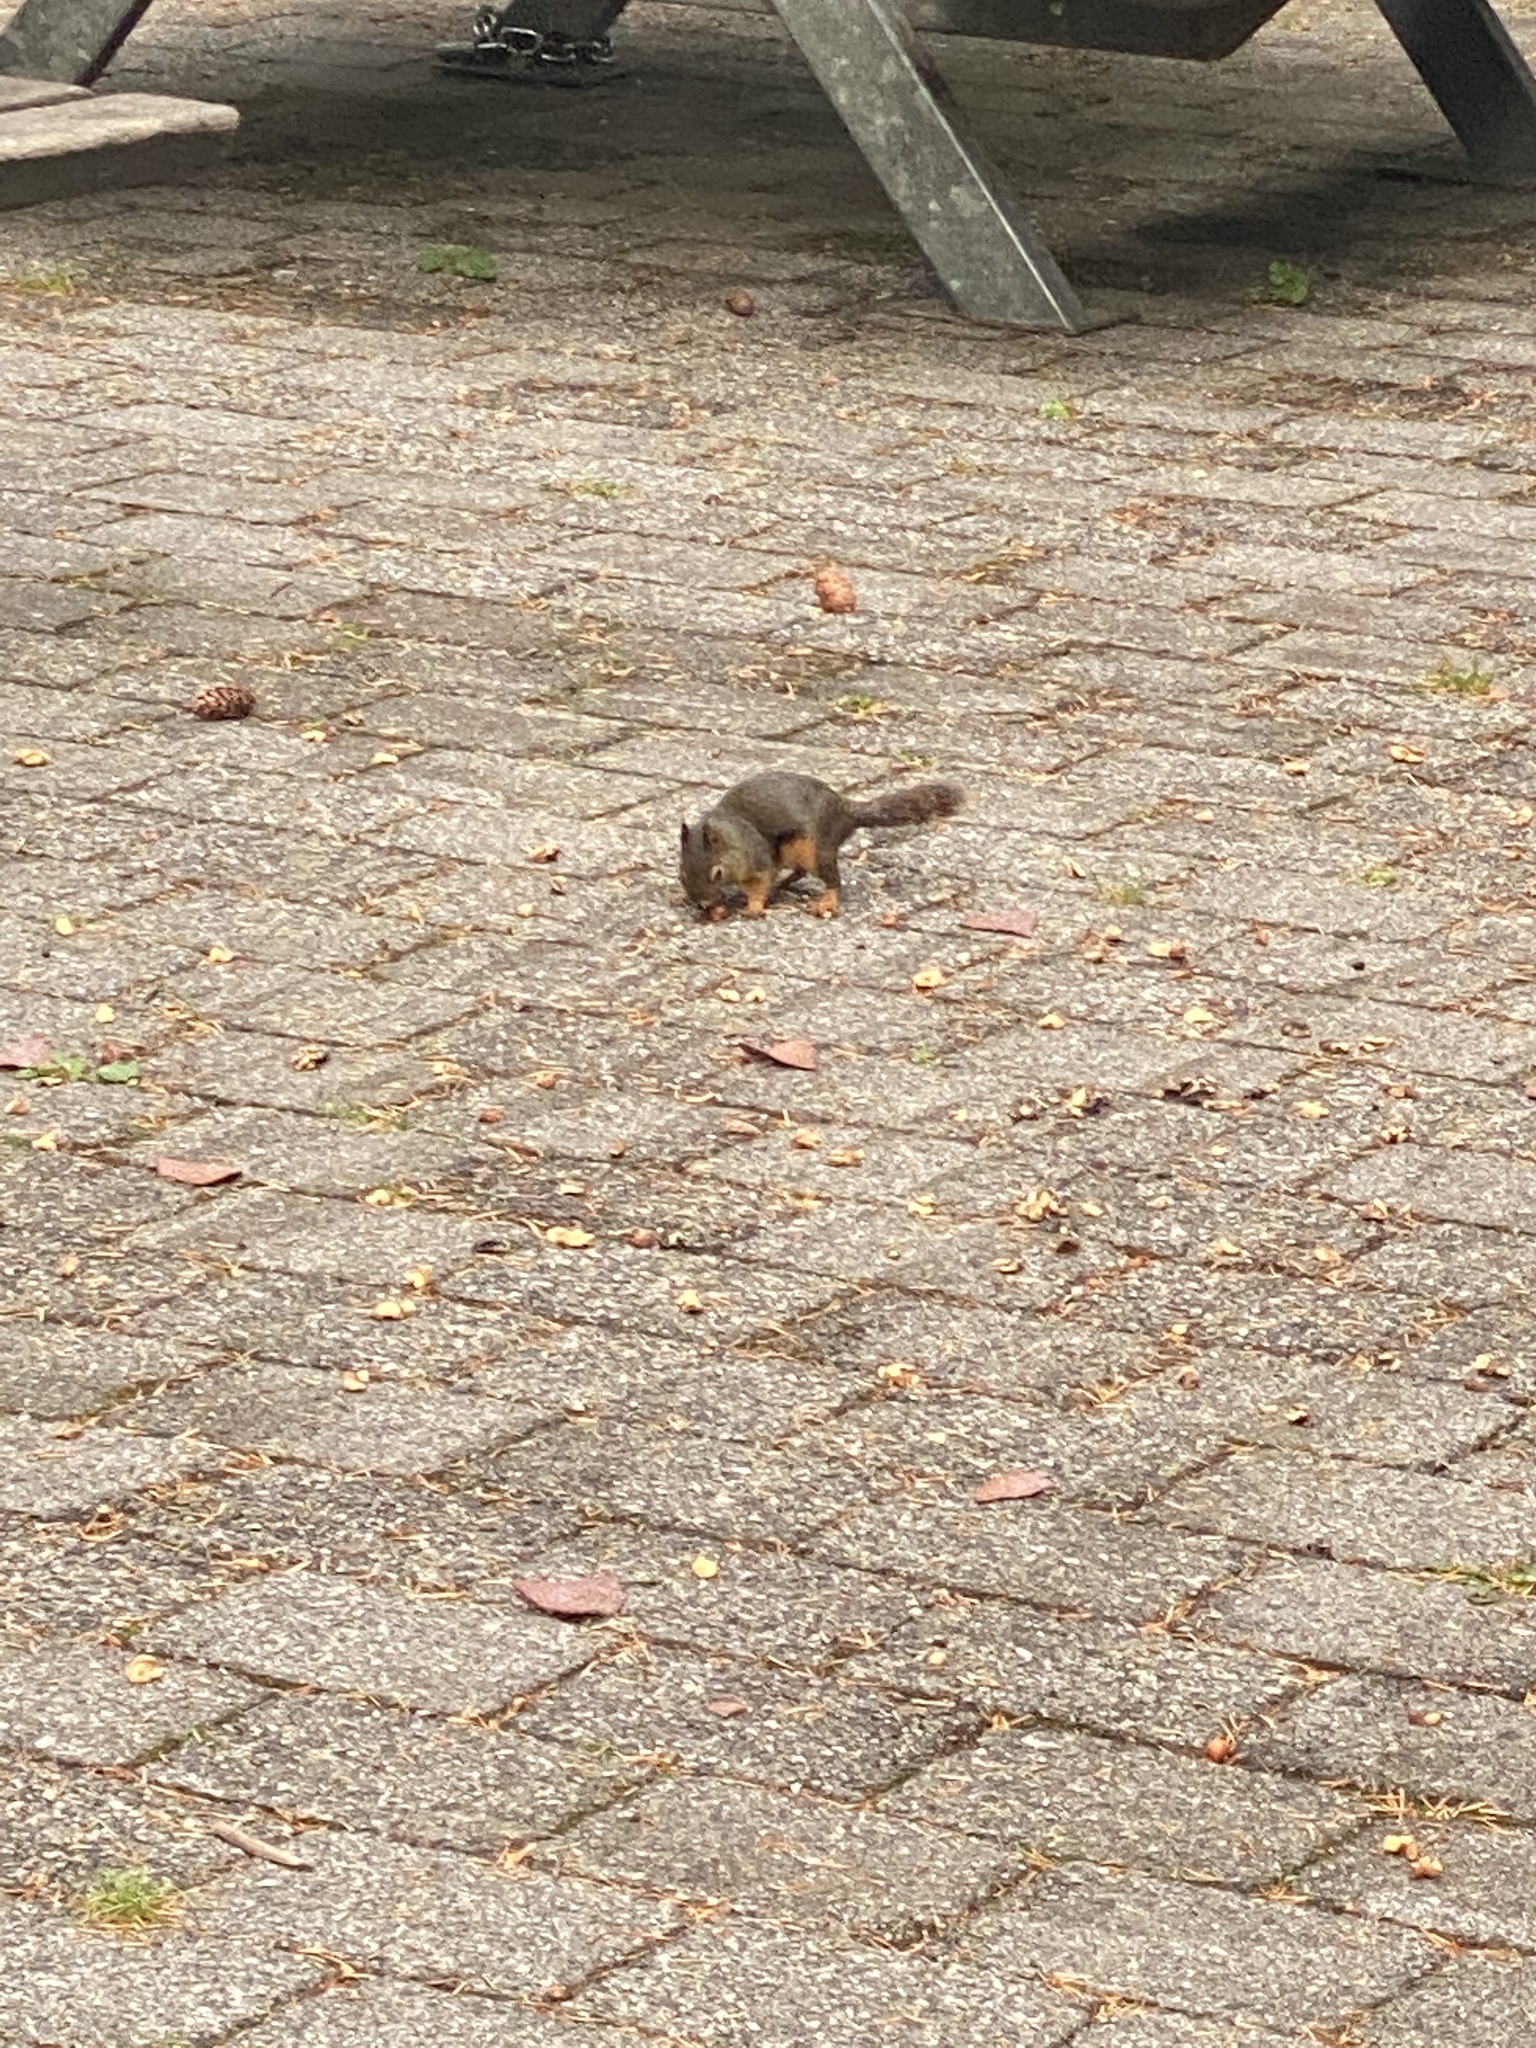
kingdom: Animalia
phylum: Chordata
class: Mammalia
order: Rodentia
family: Sciuridae
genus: Tamiasciurus
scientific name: Tamiasciurus douglasii
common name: Douglas's squirrel
